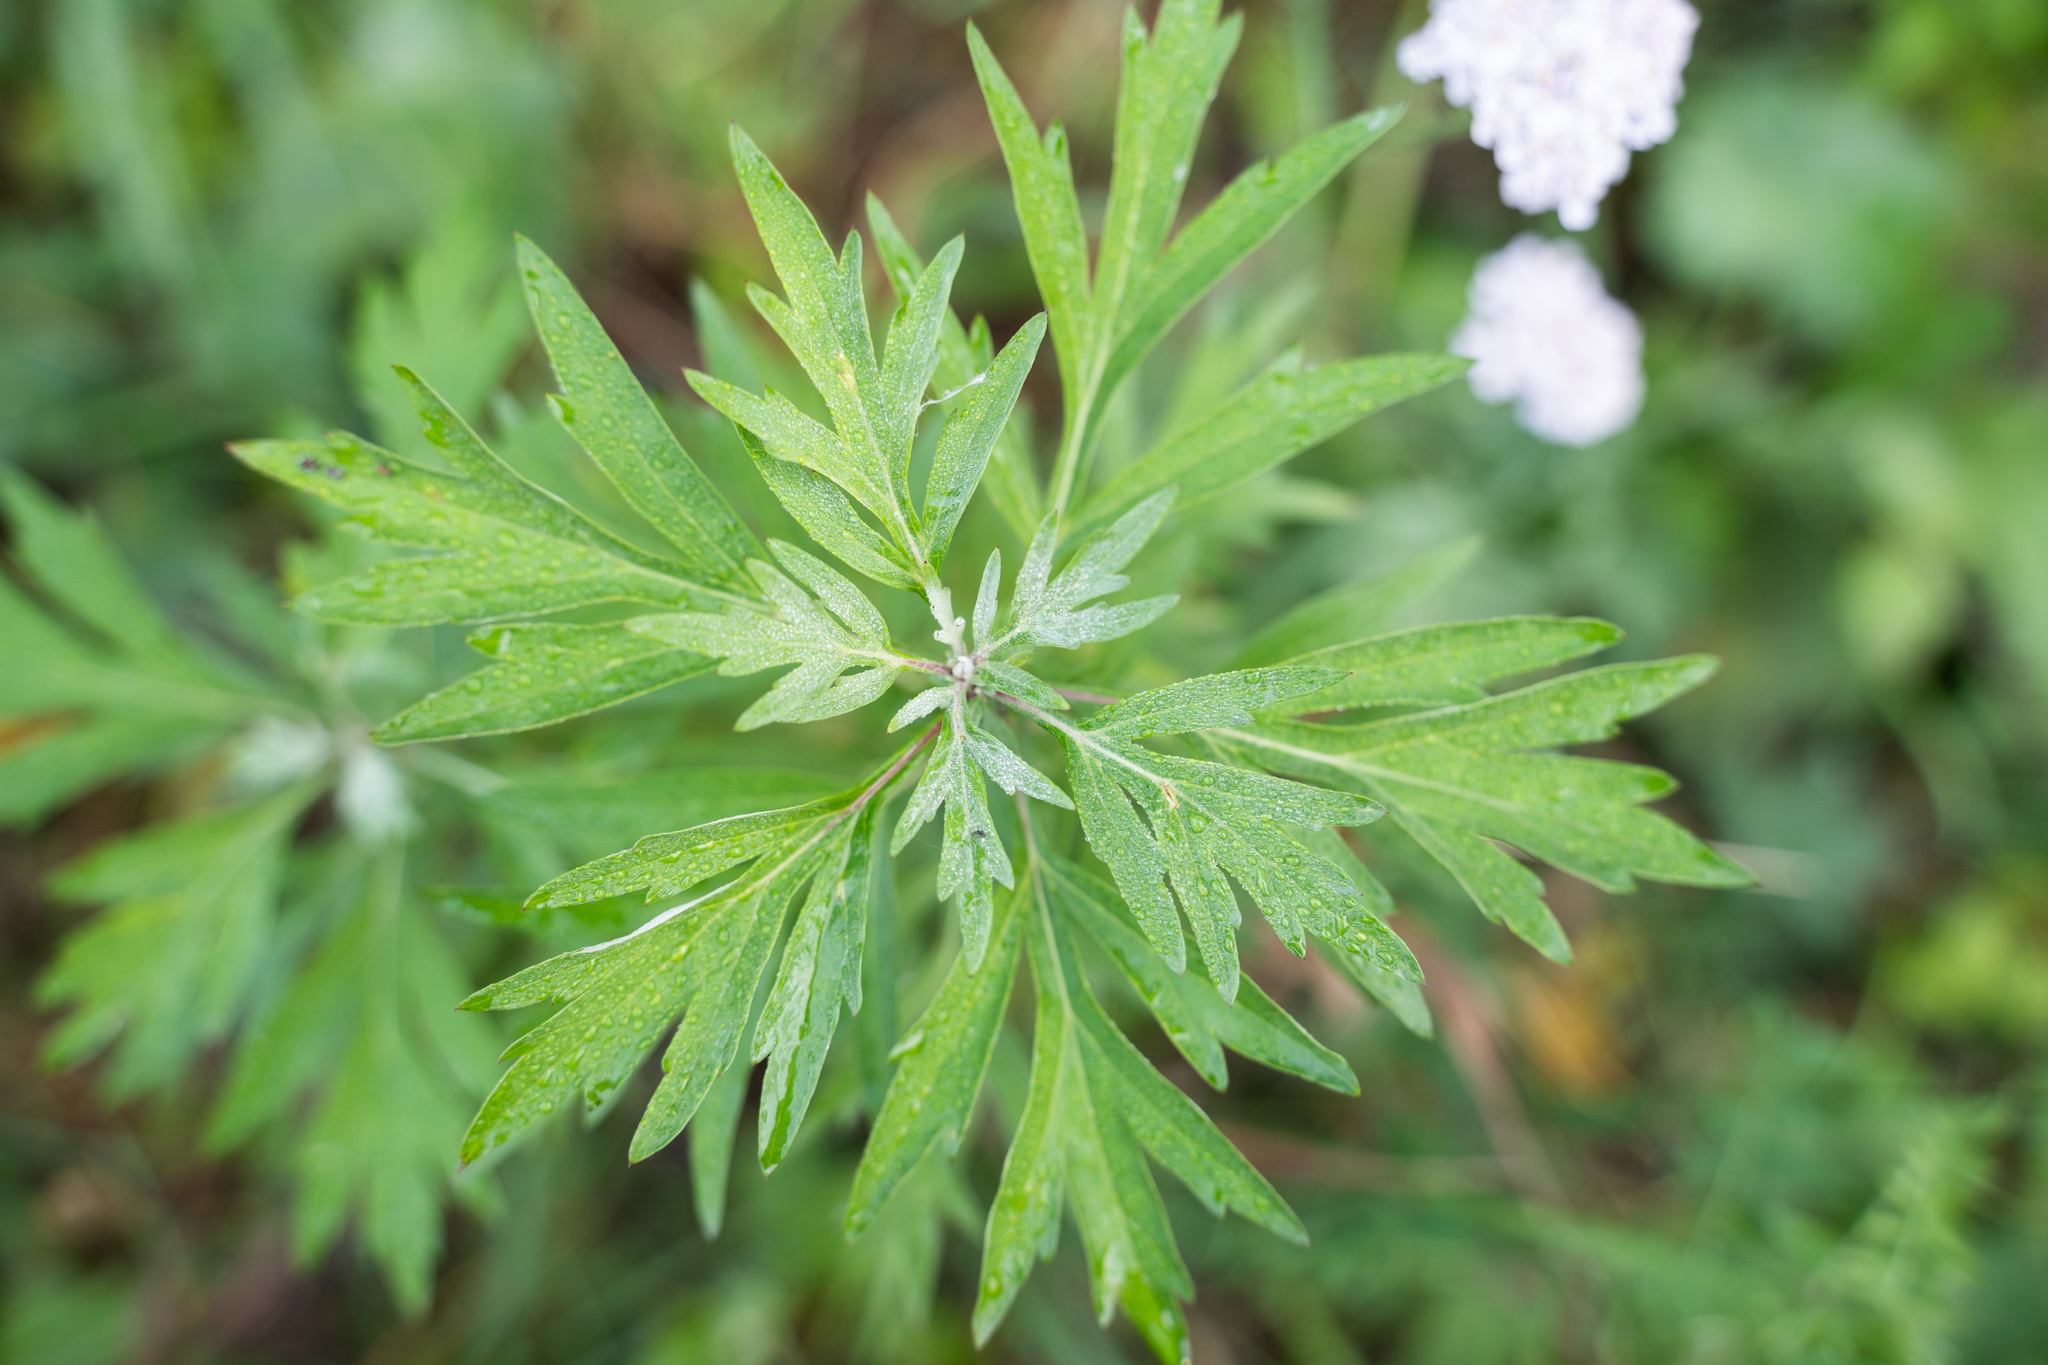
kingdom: Plantae
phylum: Tracheophyta
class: Magnoliopsida
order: Asterales
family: Asteraceae
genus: Artemisia
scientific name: Artemisia vulgaris
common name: Mugwort
